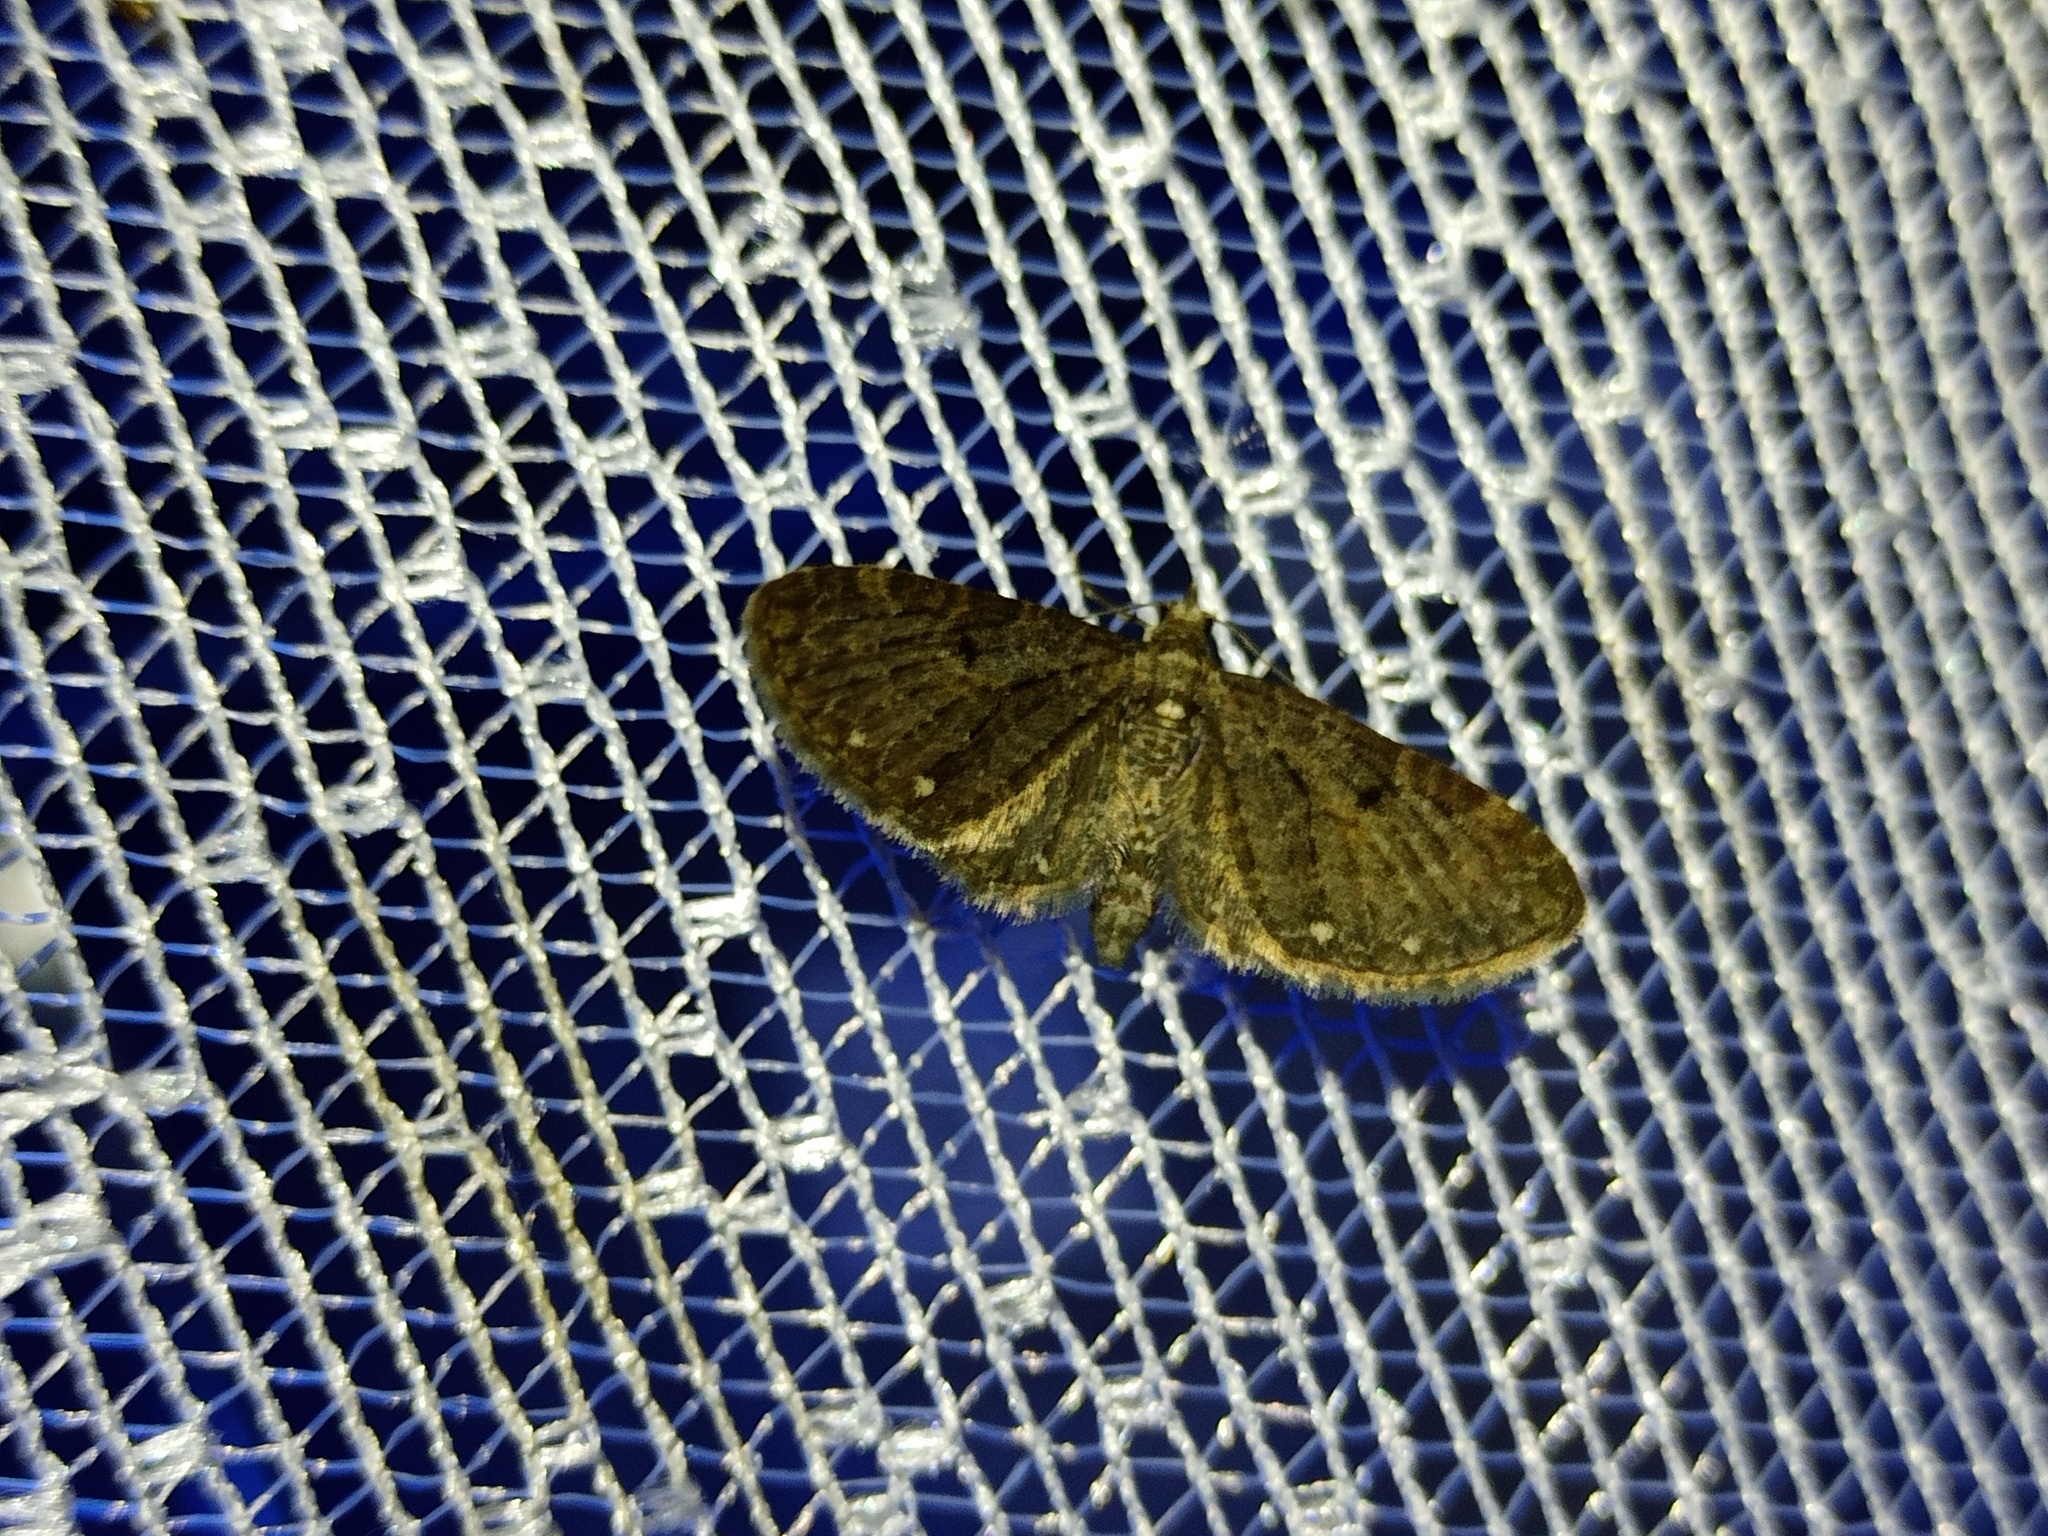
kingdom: Animalia
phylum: Arthropoda
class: Insecta
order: Lepidoptera
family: Geometridae
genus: Eupithecia
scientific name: Eupithecia tripunctaria
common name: White-spotted pug
